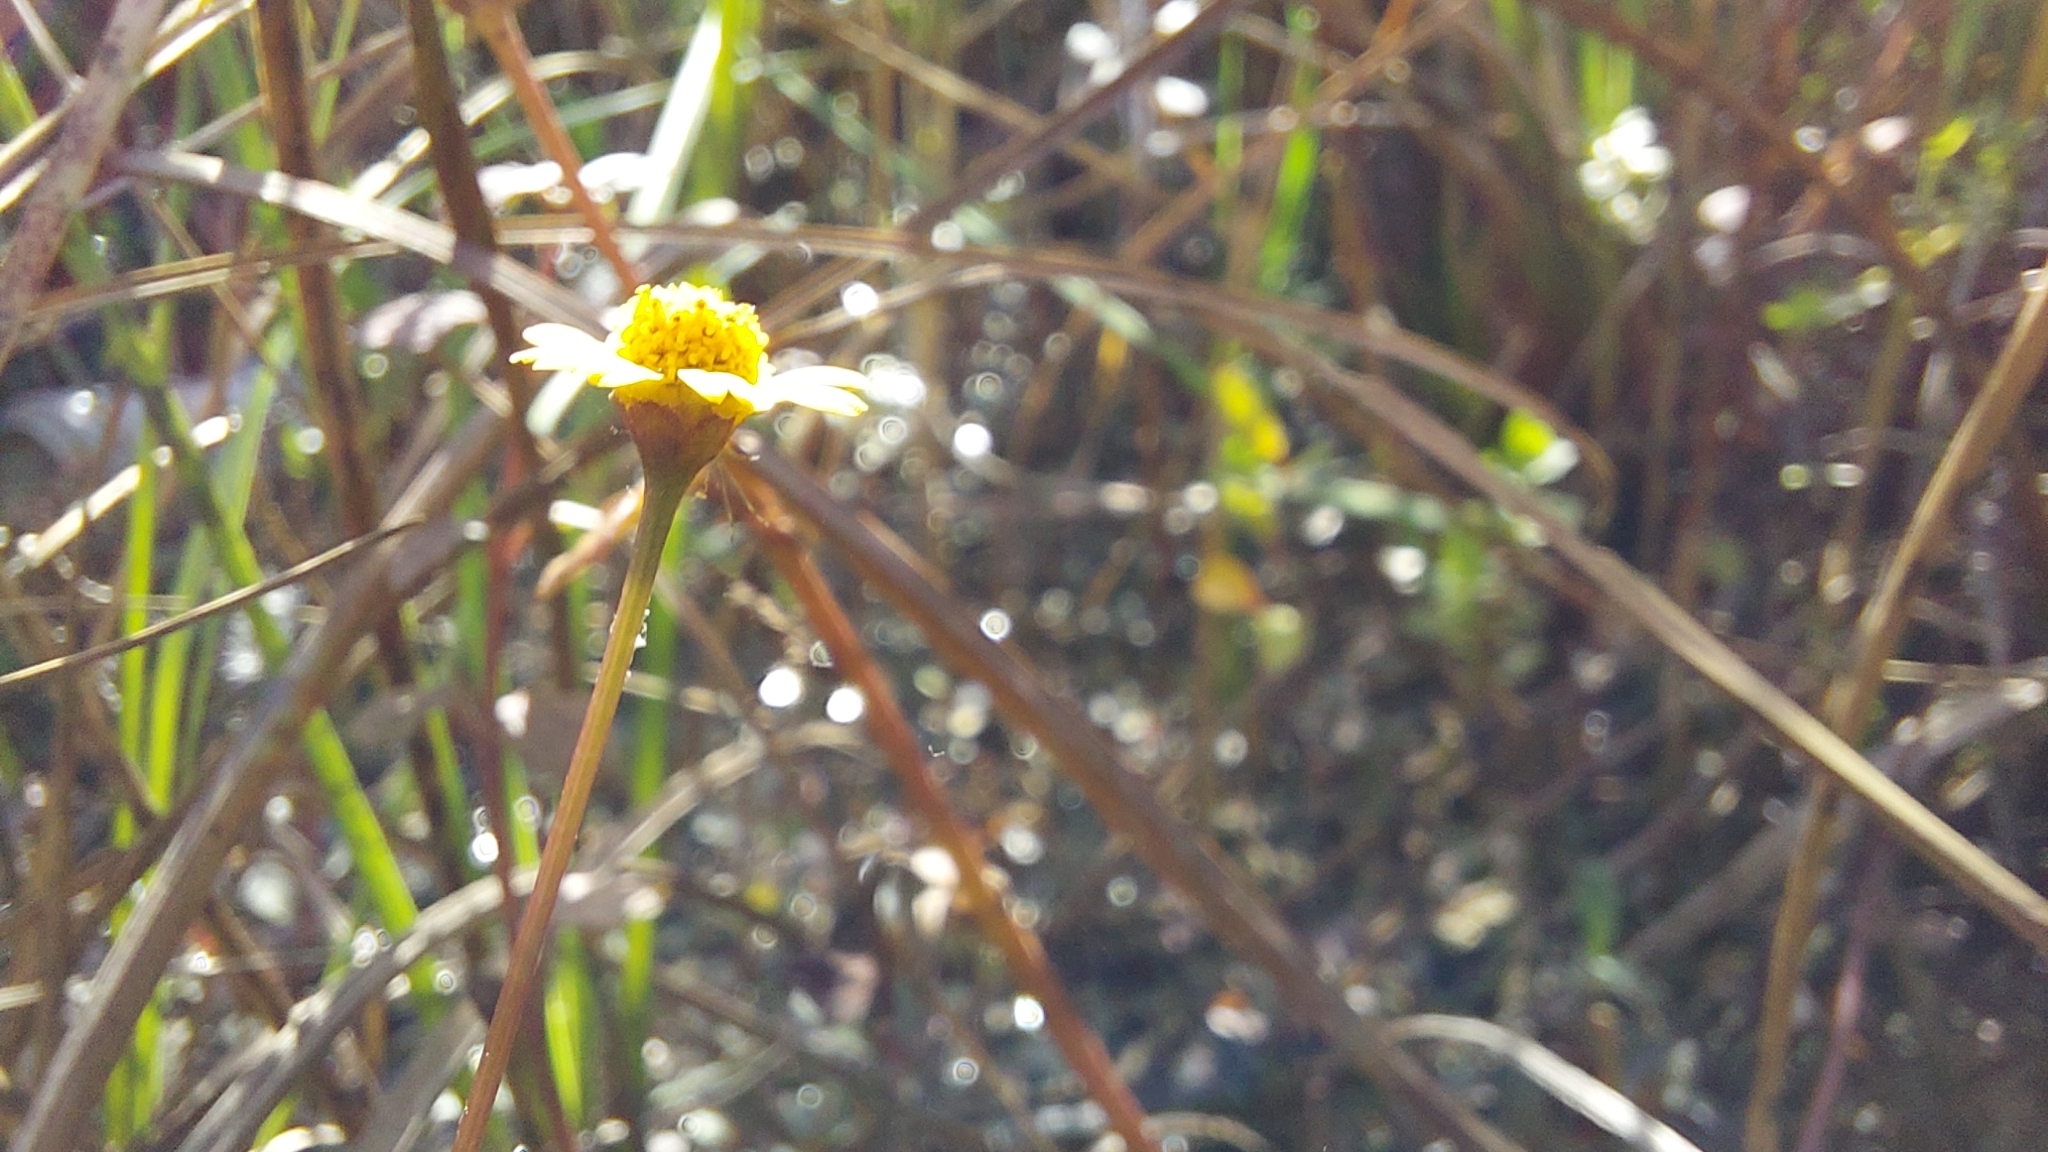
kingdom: Plantae
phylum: Tracheophyta
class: Magnoliopsida
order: Asterales
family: Asteraceae
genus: Acmella
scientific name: Acmella repens
